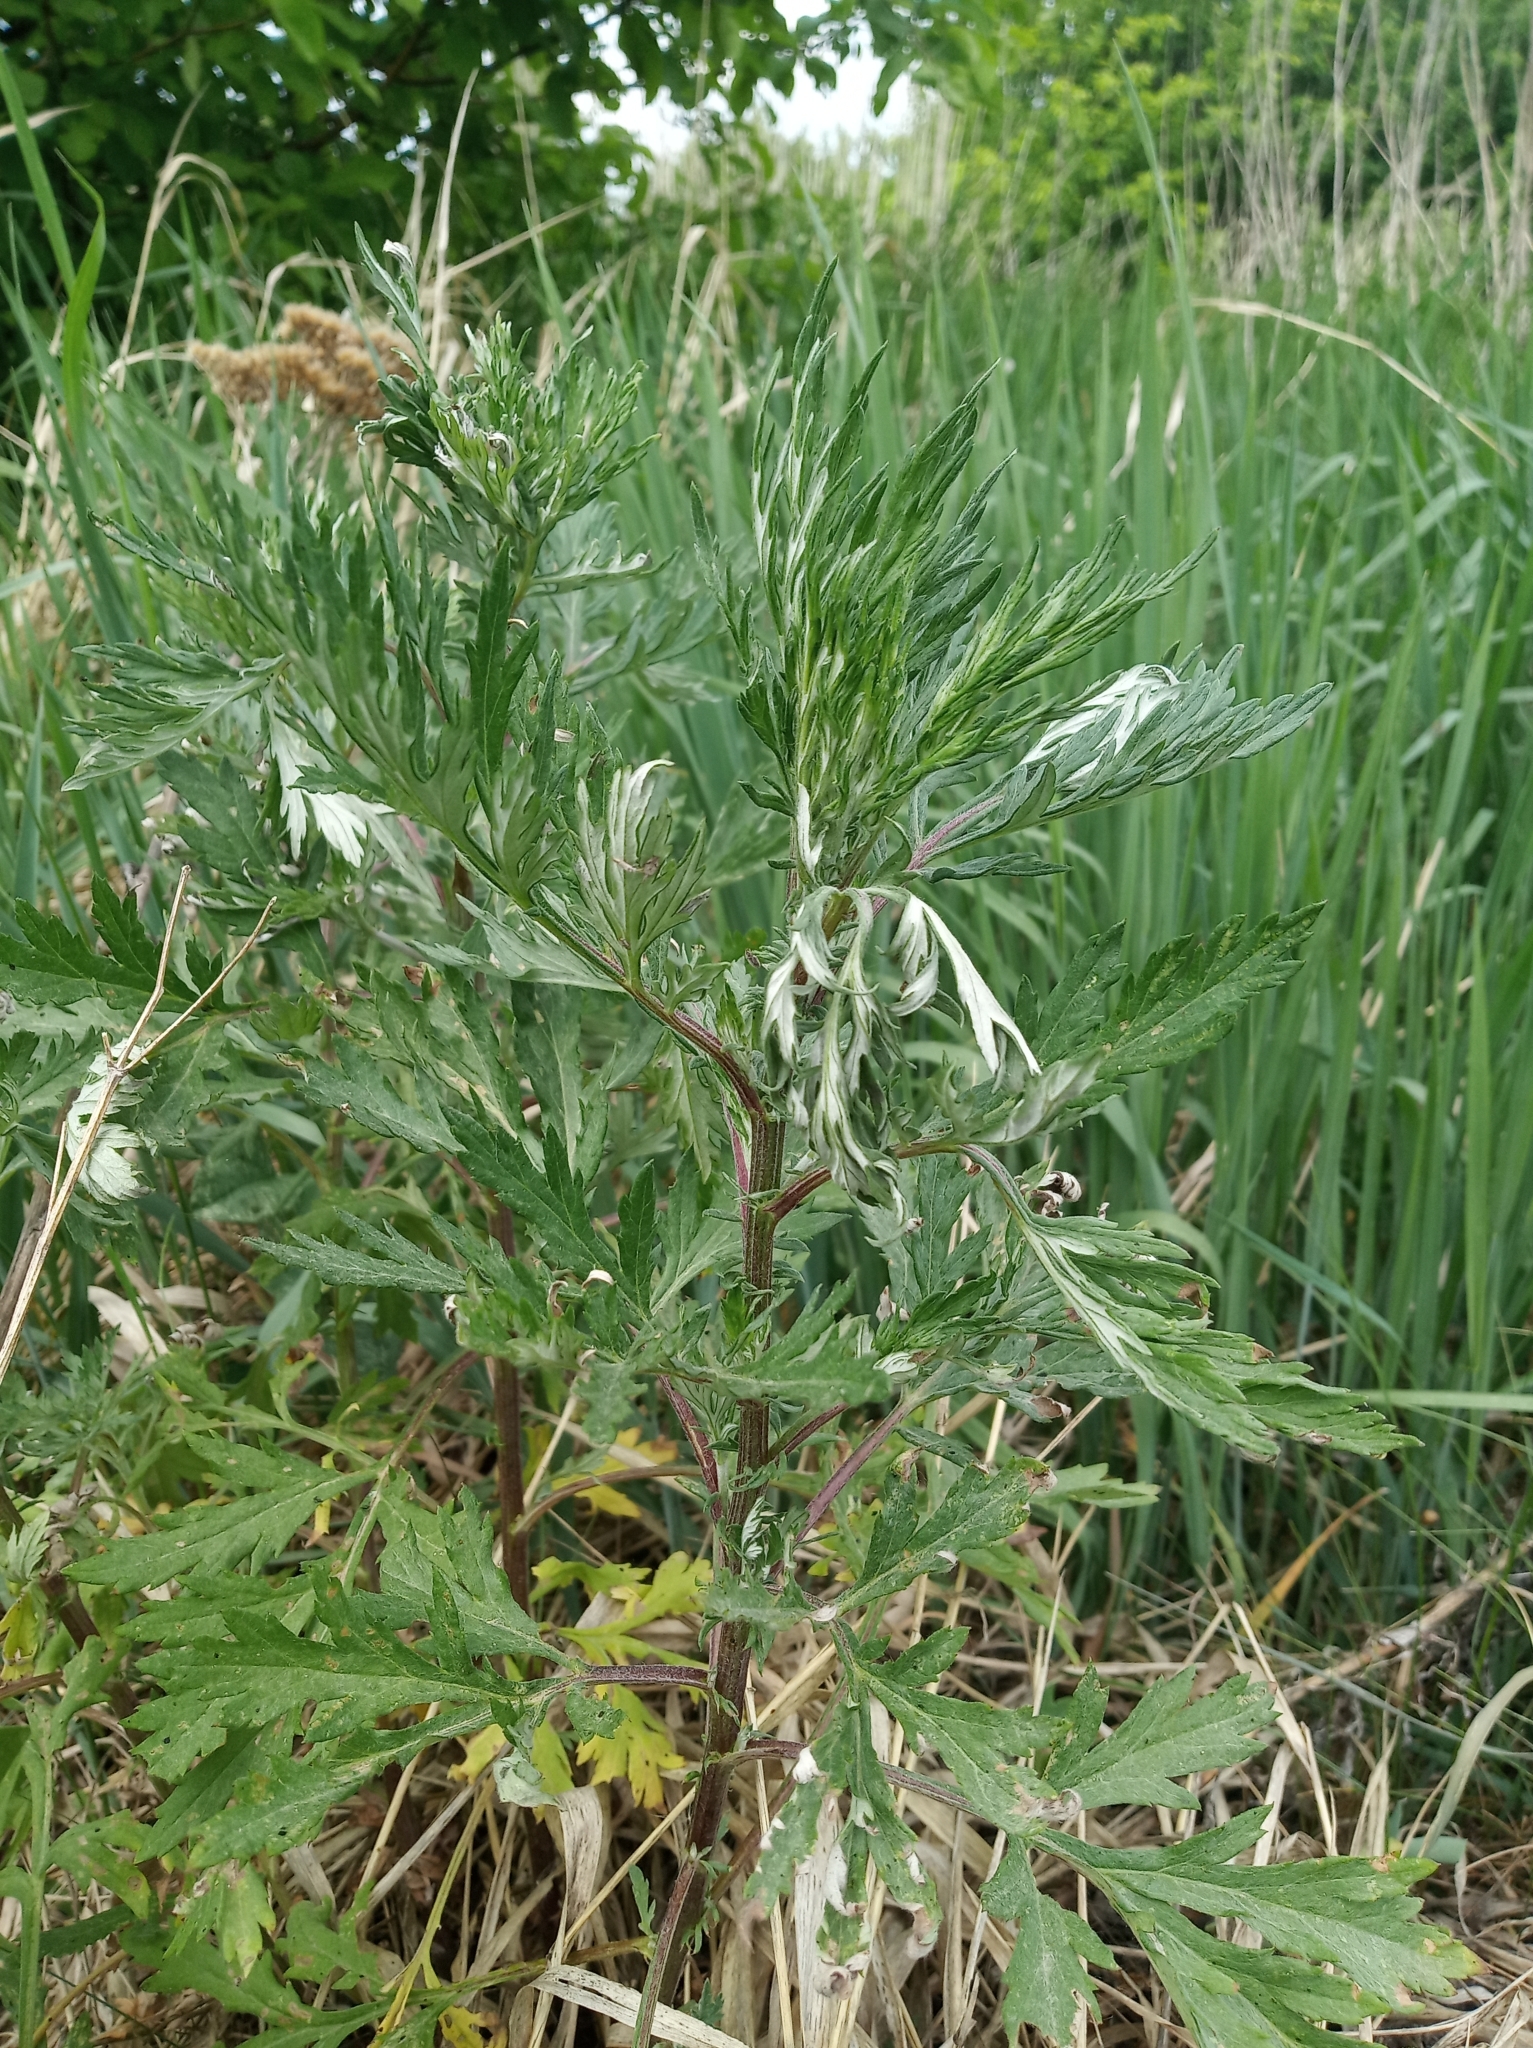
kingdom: Plantae
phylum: Tracheophyta
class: Magnoliopsida
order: Asterales
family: Asteraceae
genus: Artemisia
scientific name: Artemisia vulgaris
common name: Mugwort
